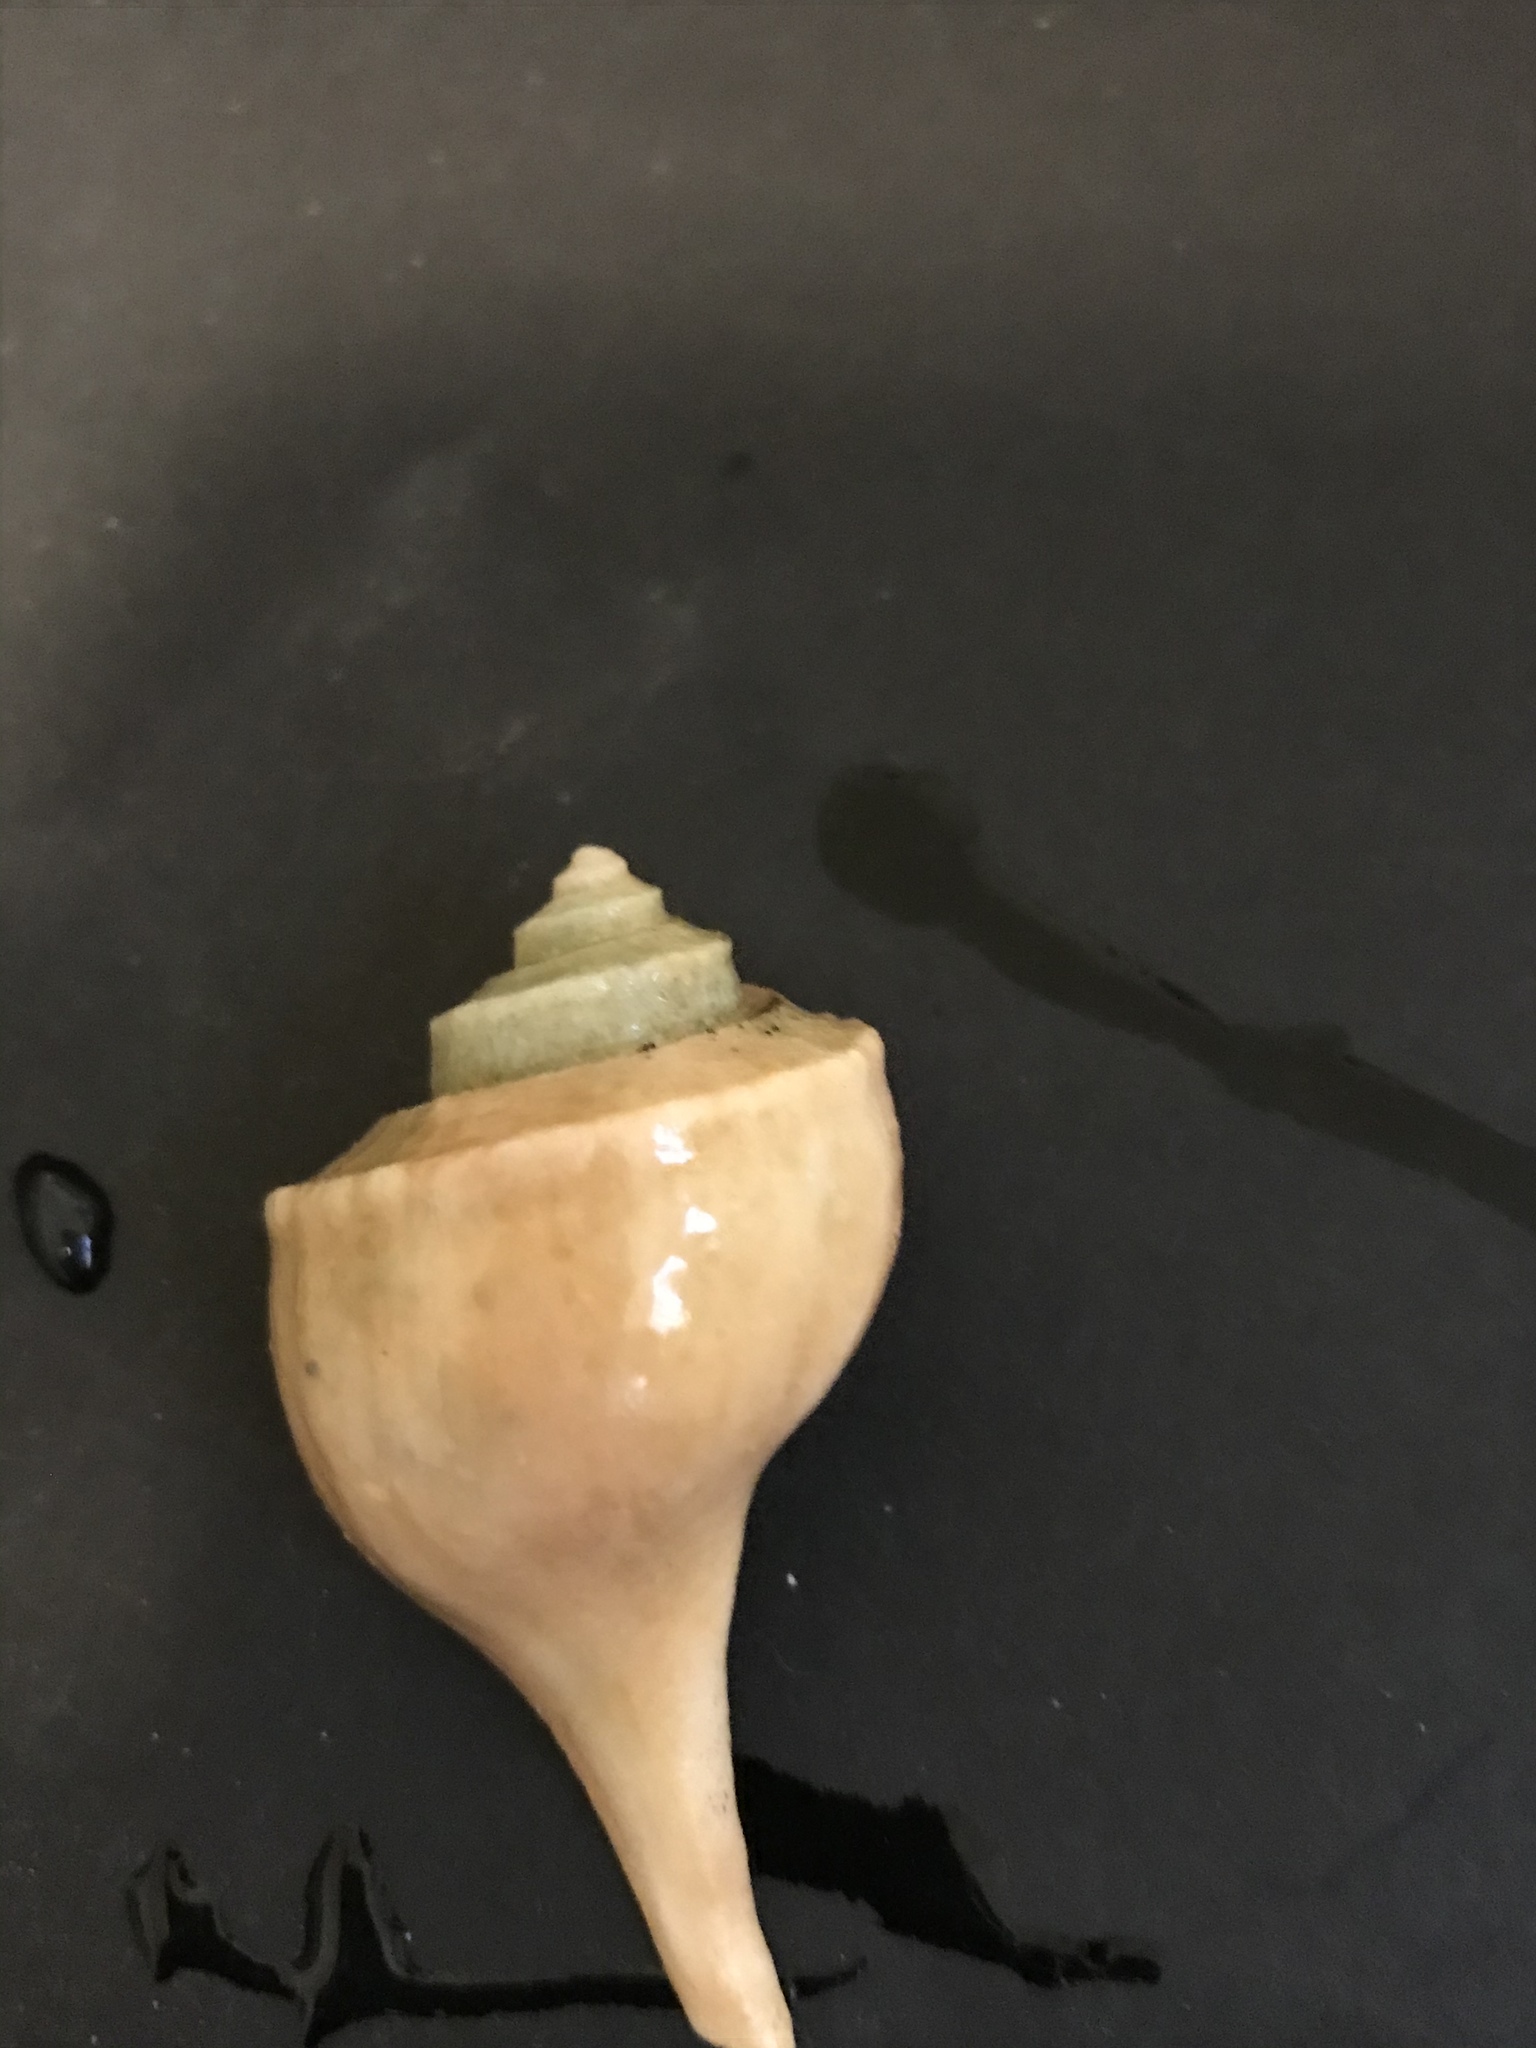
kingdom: Animalia
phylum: Mollusca
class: Gastropoda
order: Neogastropoda
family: Busyconidae
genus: Busycotypus
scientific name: Busycotypus canaliculatus
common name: Channeled whelk
